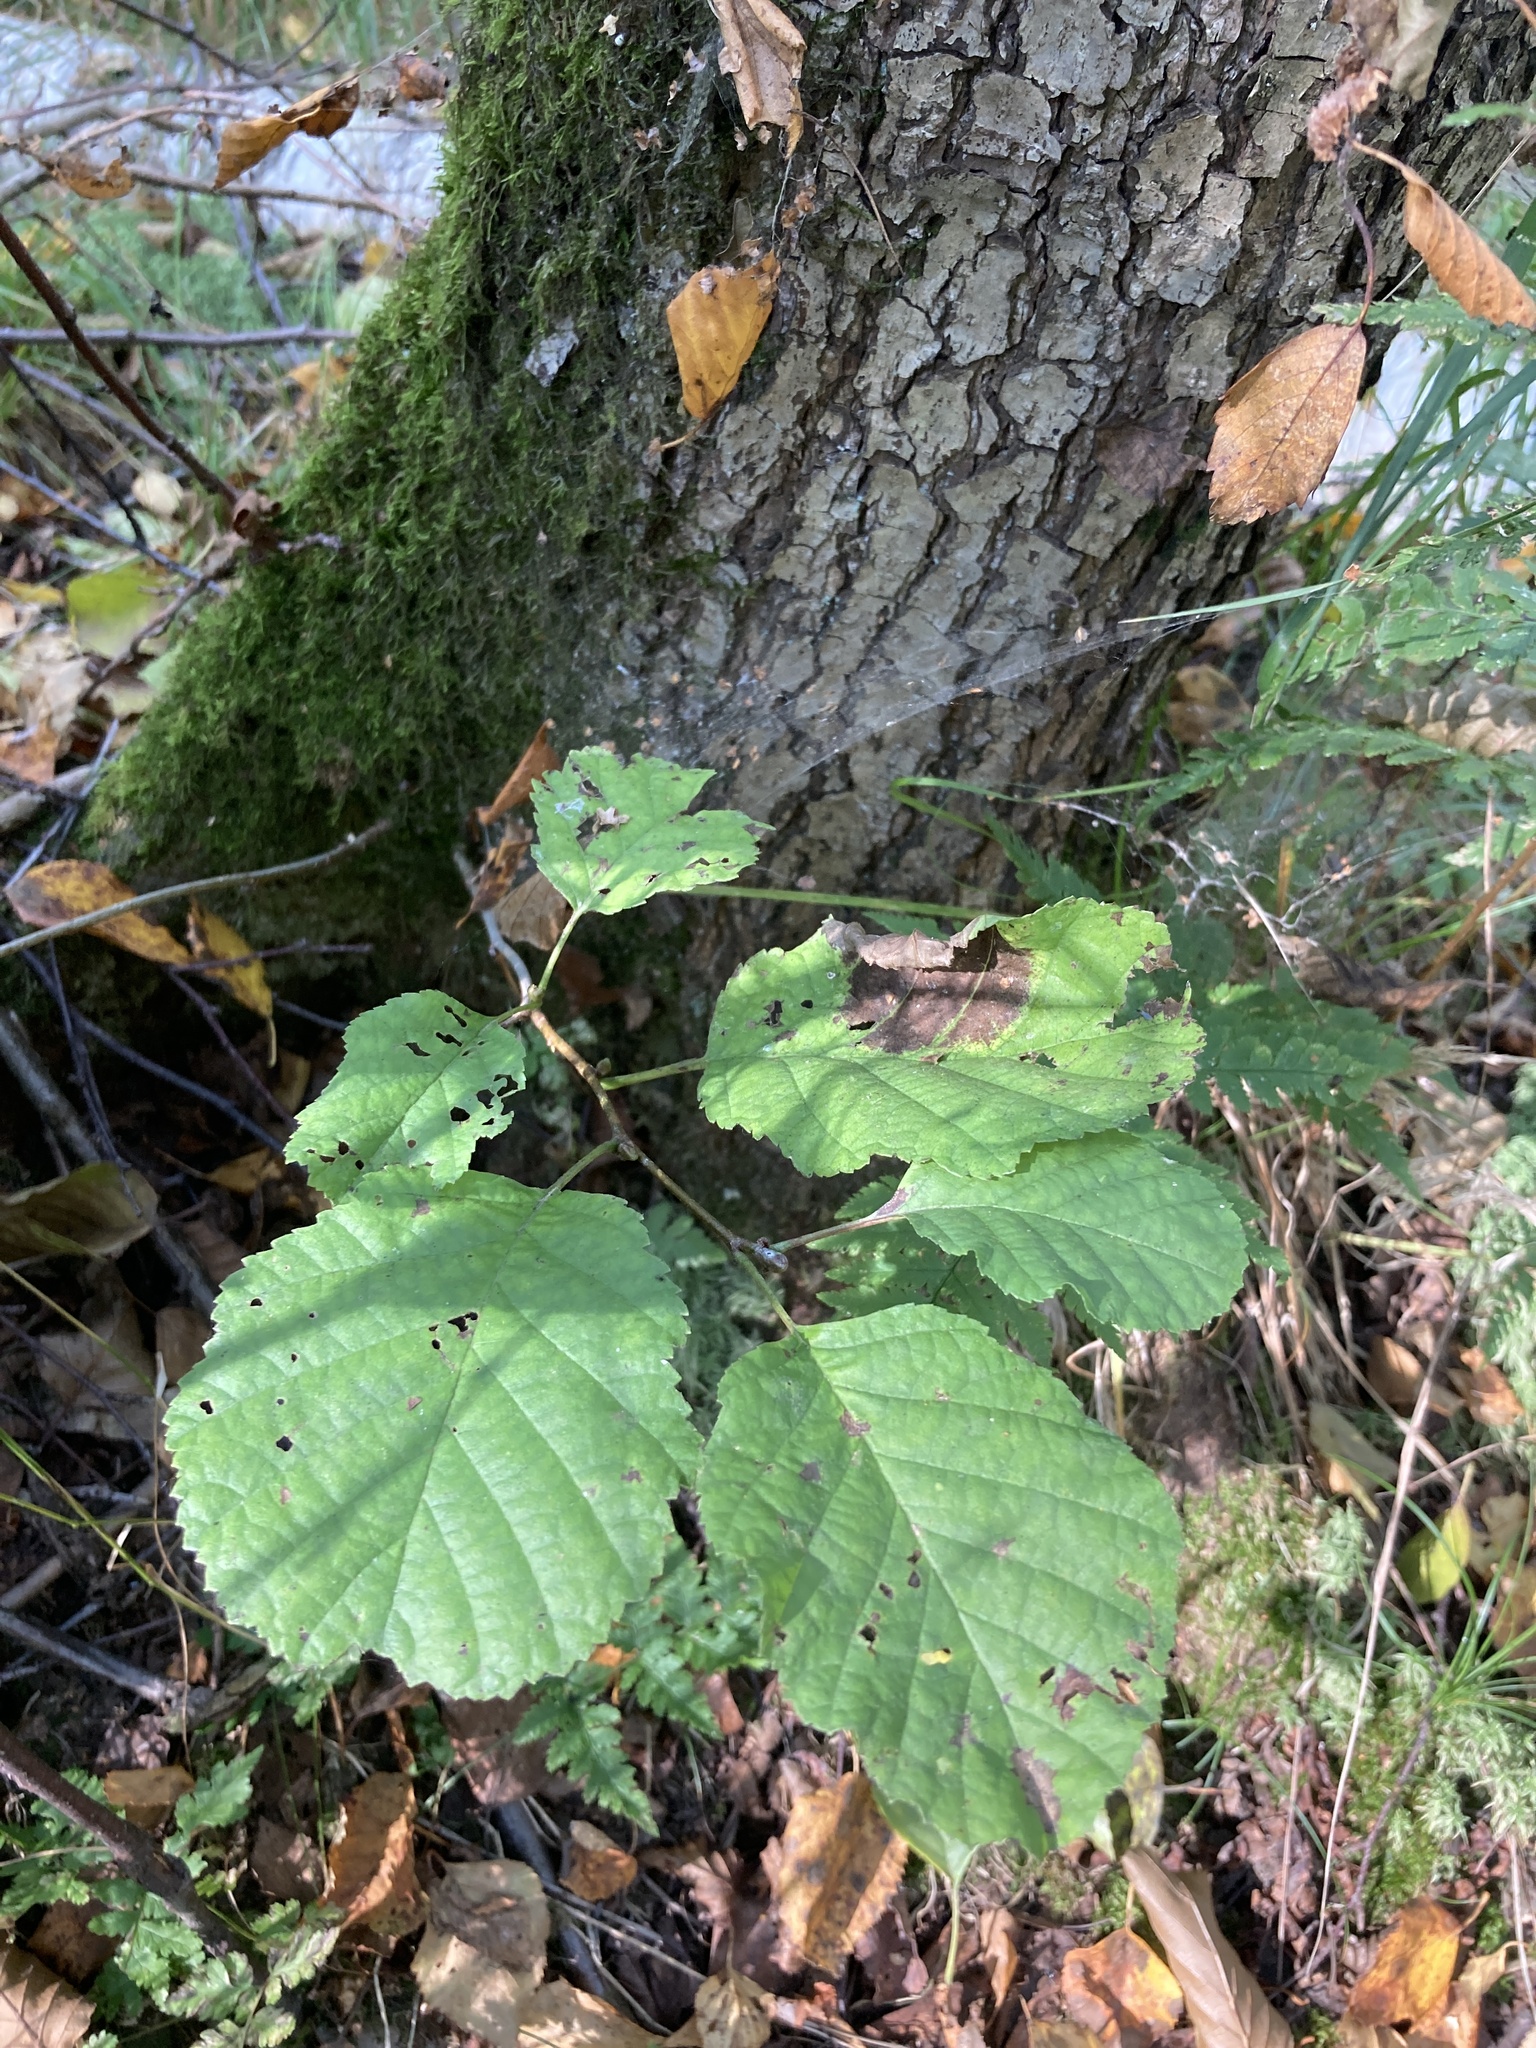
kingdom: Plantae
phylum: Tracheophyta
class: Magnoliopsida
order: Fagales
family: Betulaceae
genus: Alnus
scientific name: Alnus glutinosa
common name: Black alder
